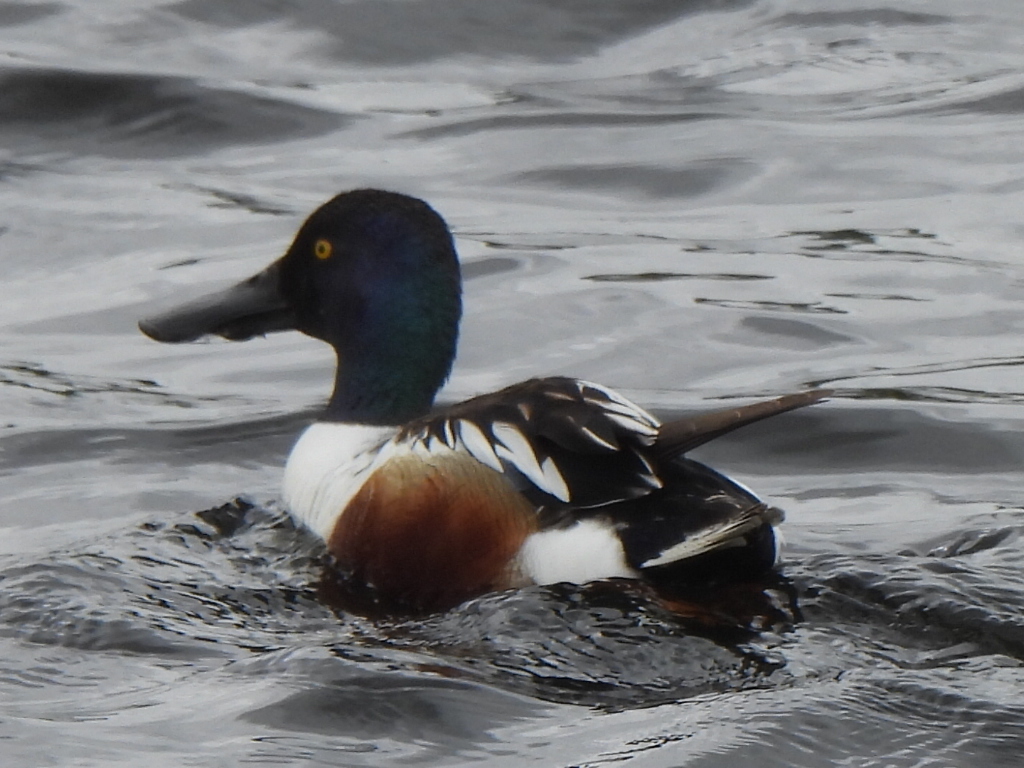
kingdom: Animalia
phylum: Chordata
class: Aves
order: Anseriformes
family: Anatidae
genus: Spatula
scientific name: Spatula clypeata
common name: Northern shoveler
